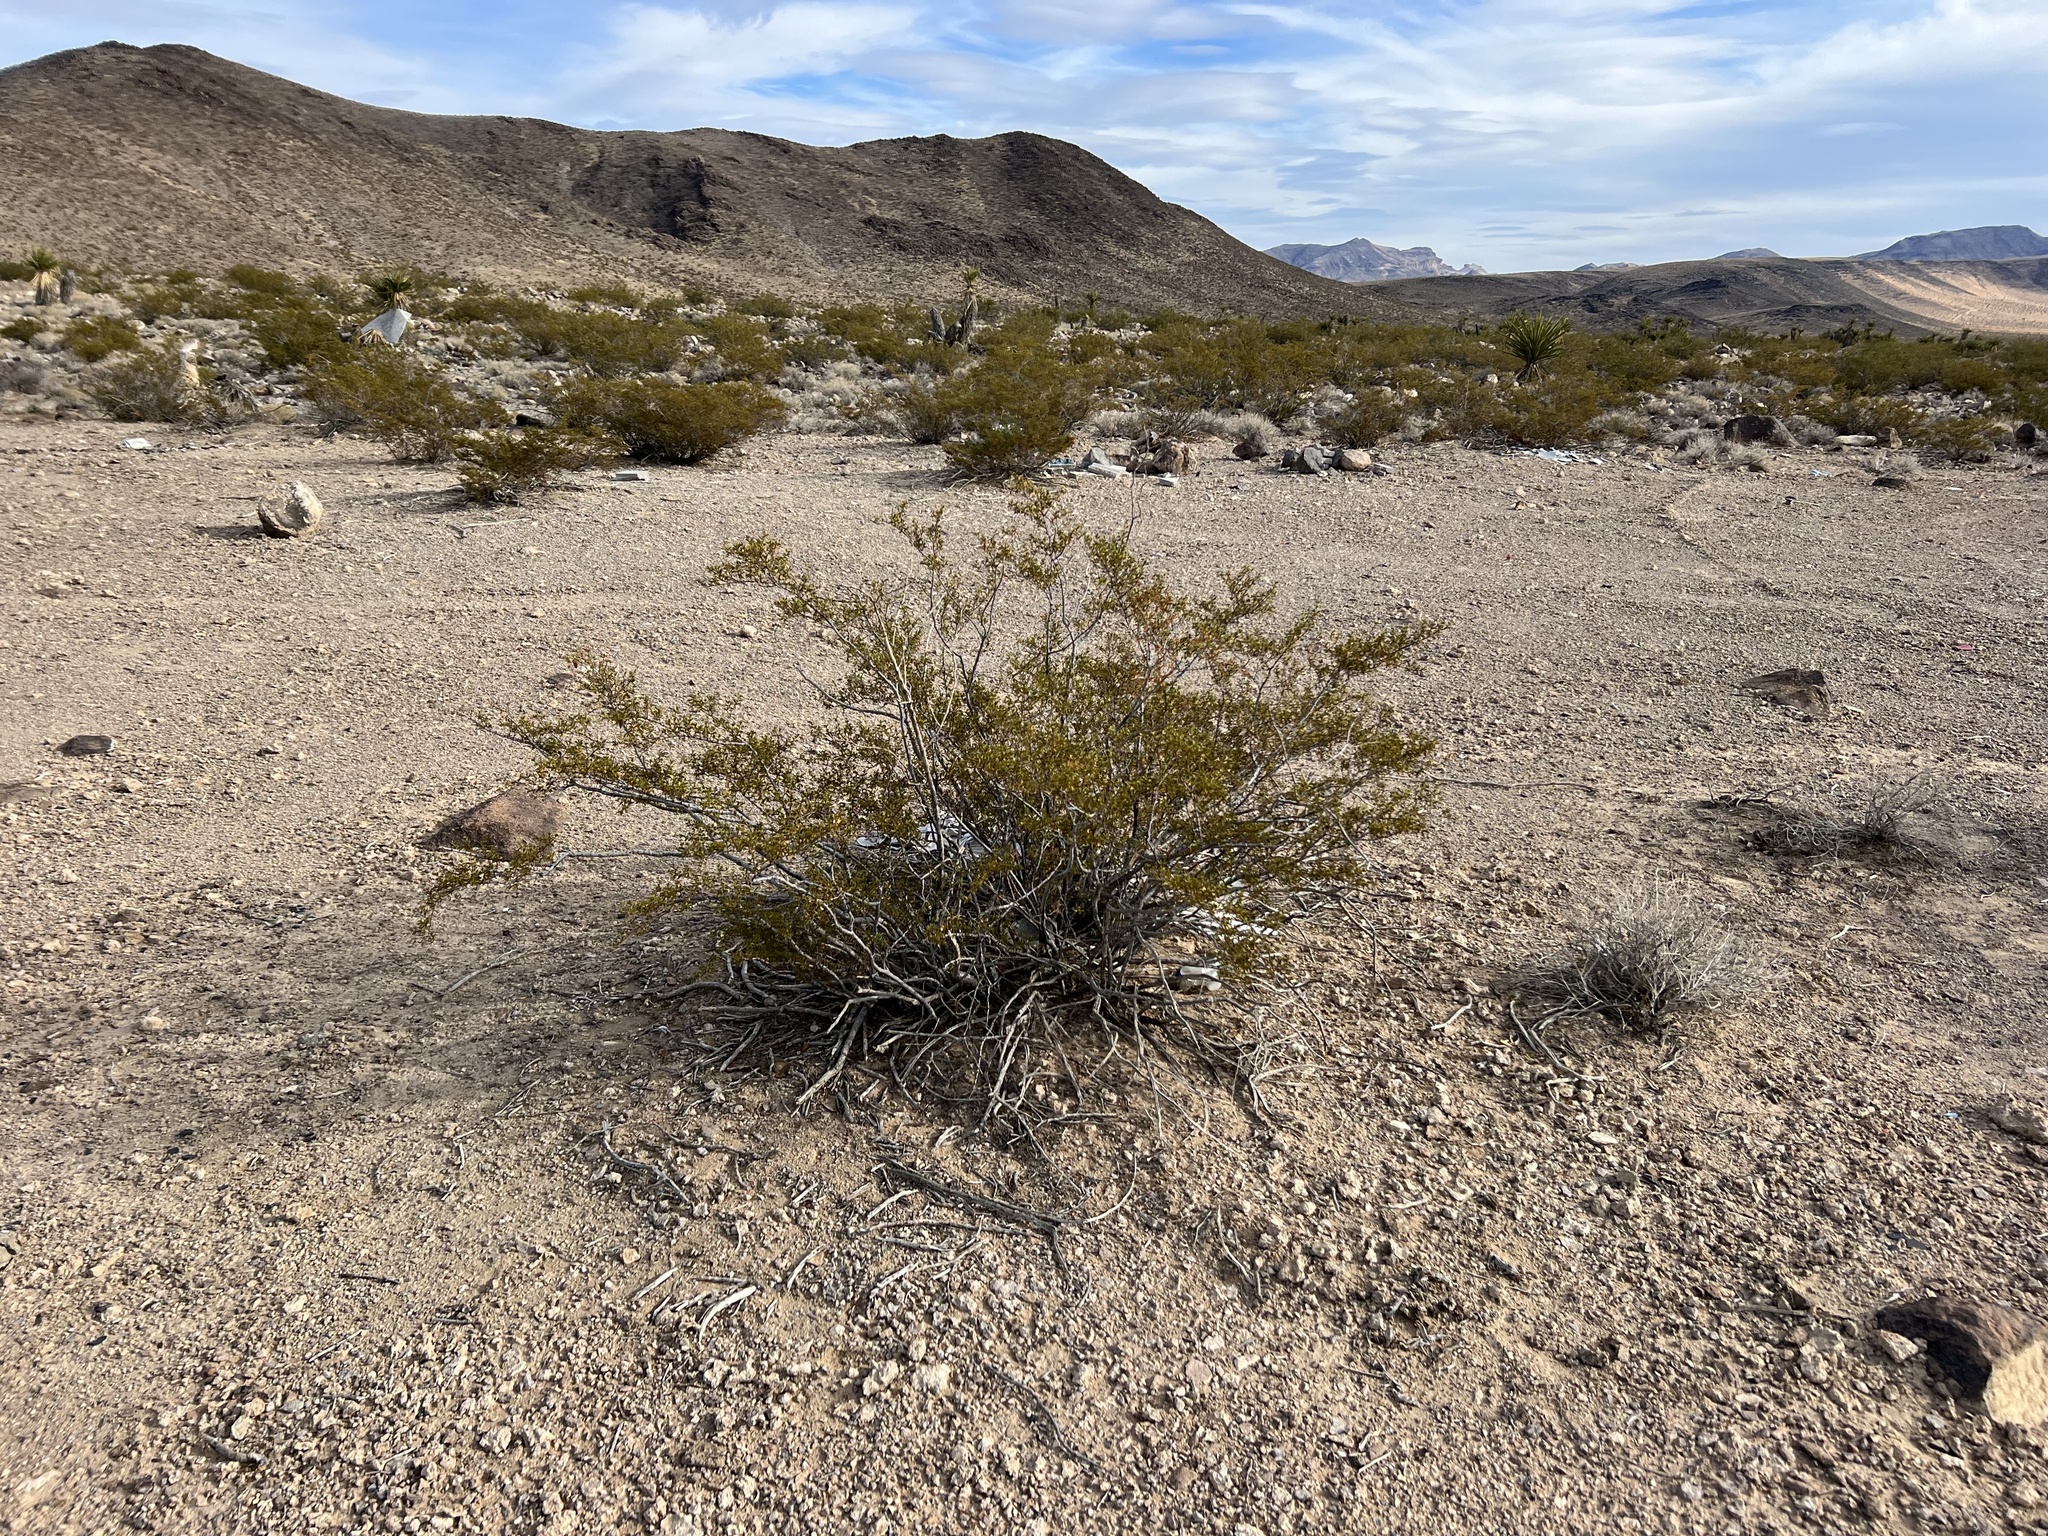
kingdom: Plantae
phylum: Tracheophyta
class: Magnoliopsida
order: Zygophyllales
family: Zygophyllaceae
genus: Larrea
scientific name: Larrea tridentata
